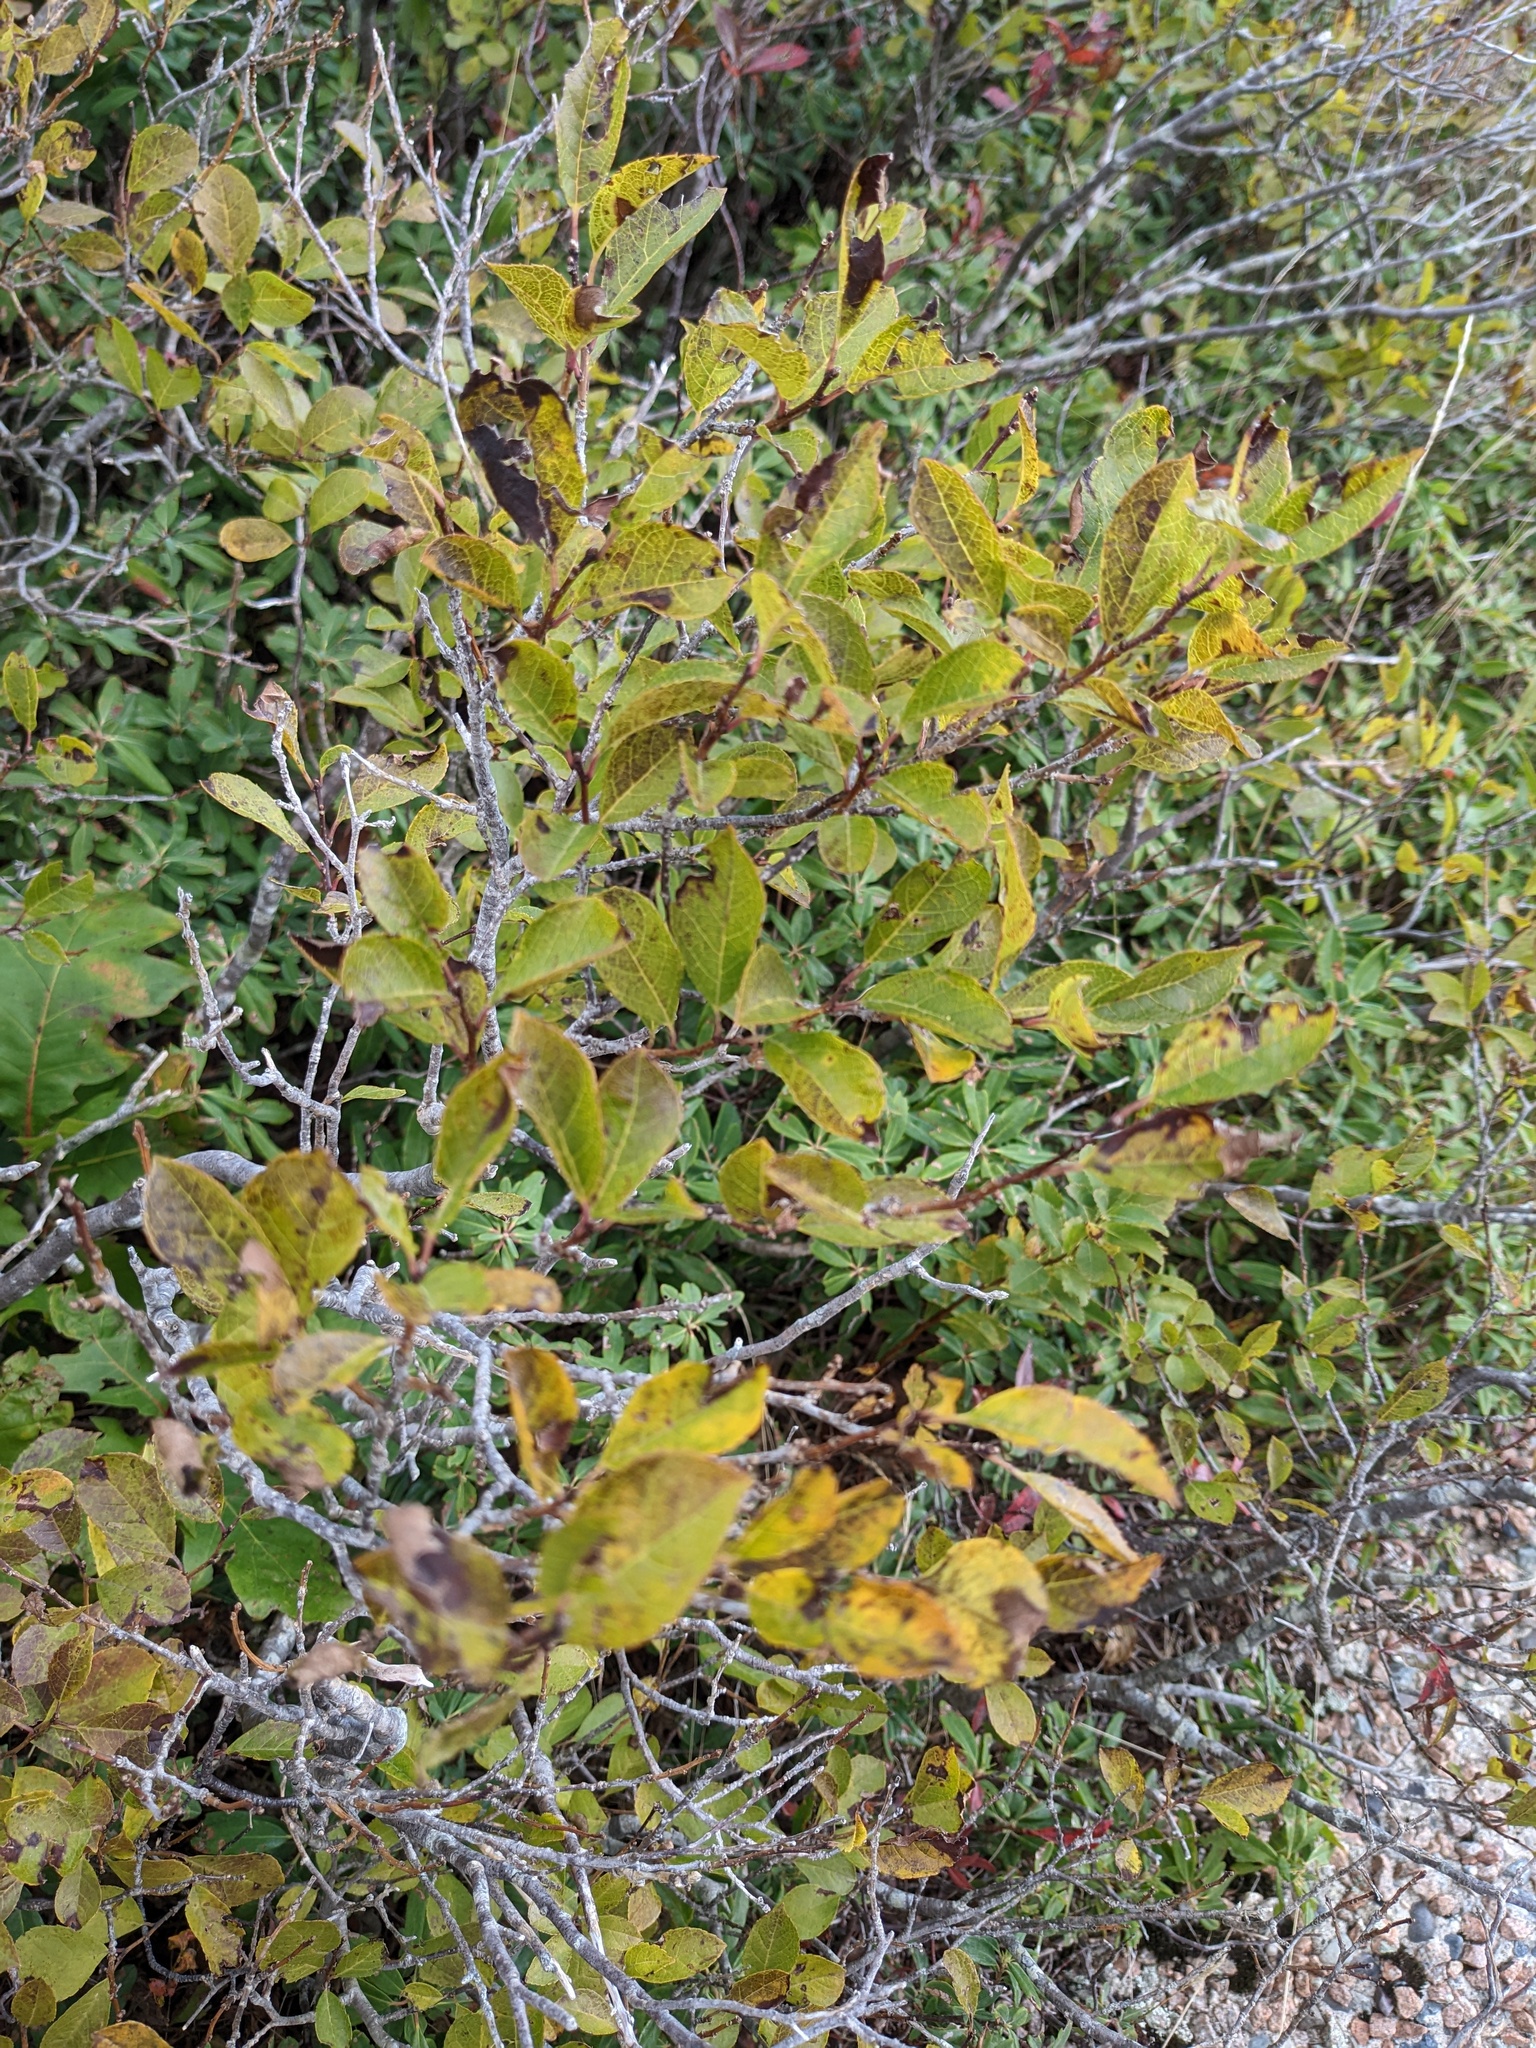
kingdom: Plantae
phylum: Tracheophyta
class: Magnoliopsida
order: Aquifoliales
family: Aquifoliaceae
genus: Ilex
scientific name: Ilex verticillata
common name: Virginia winterberry
